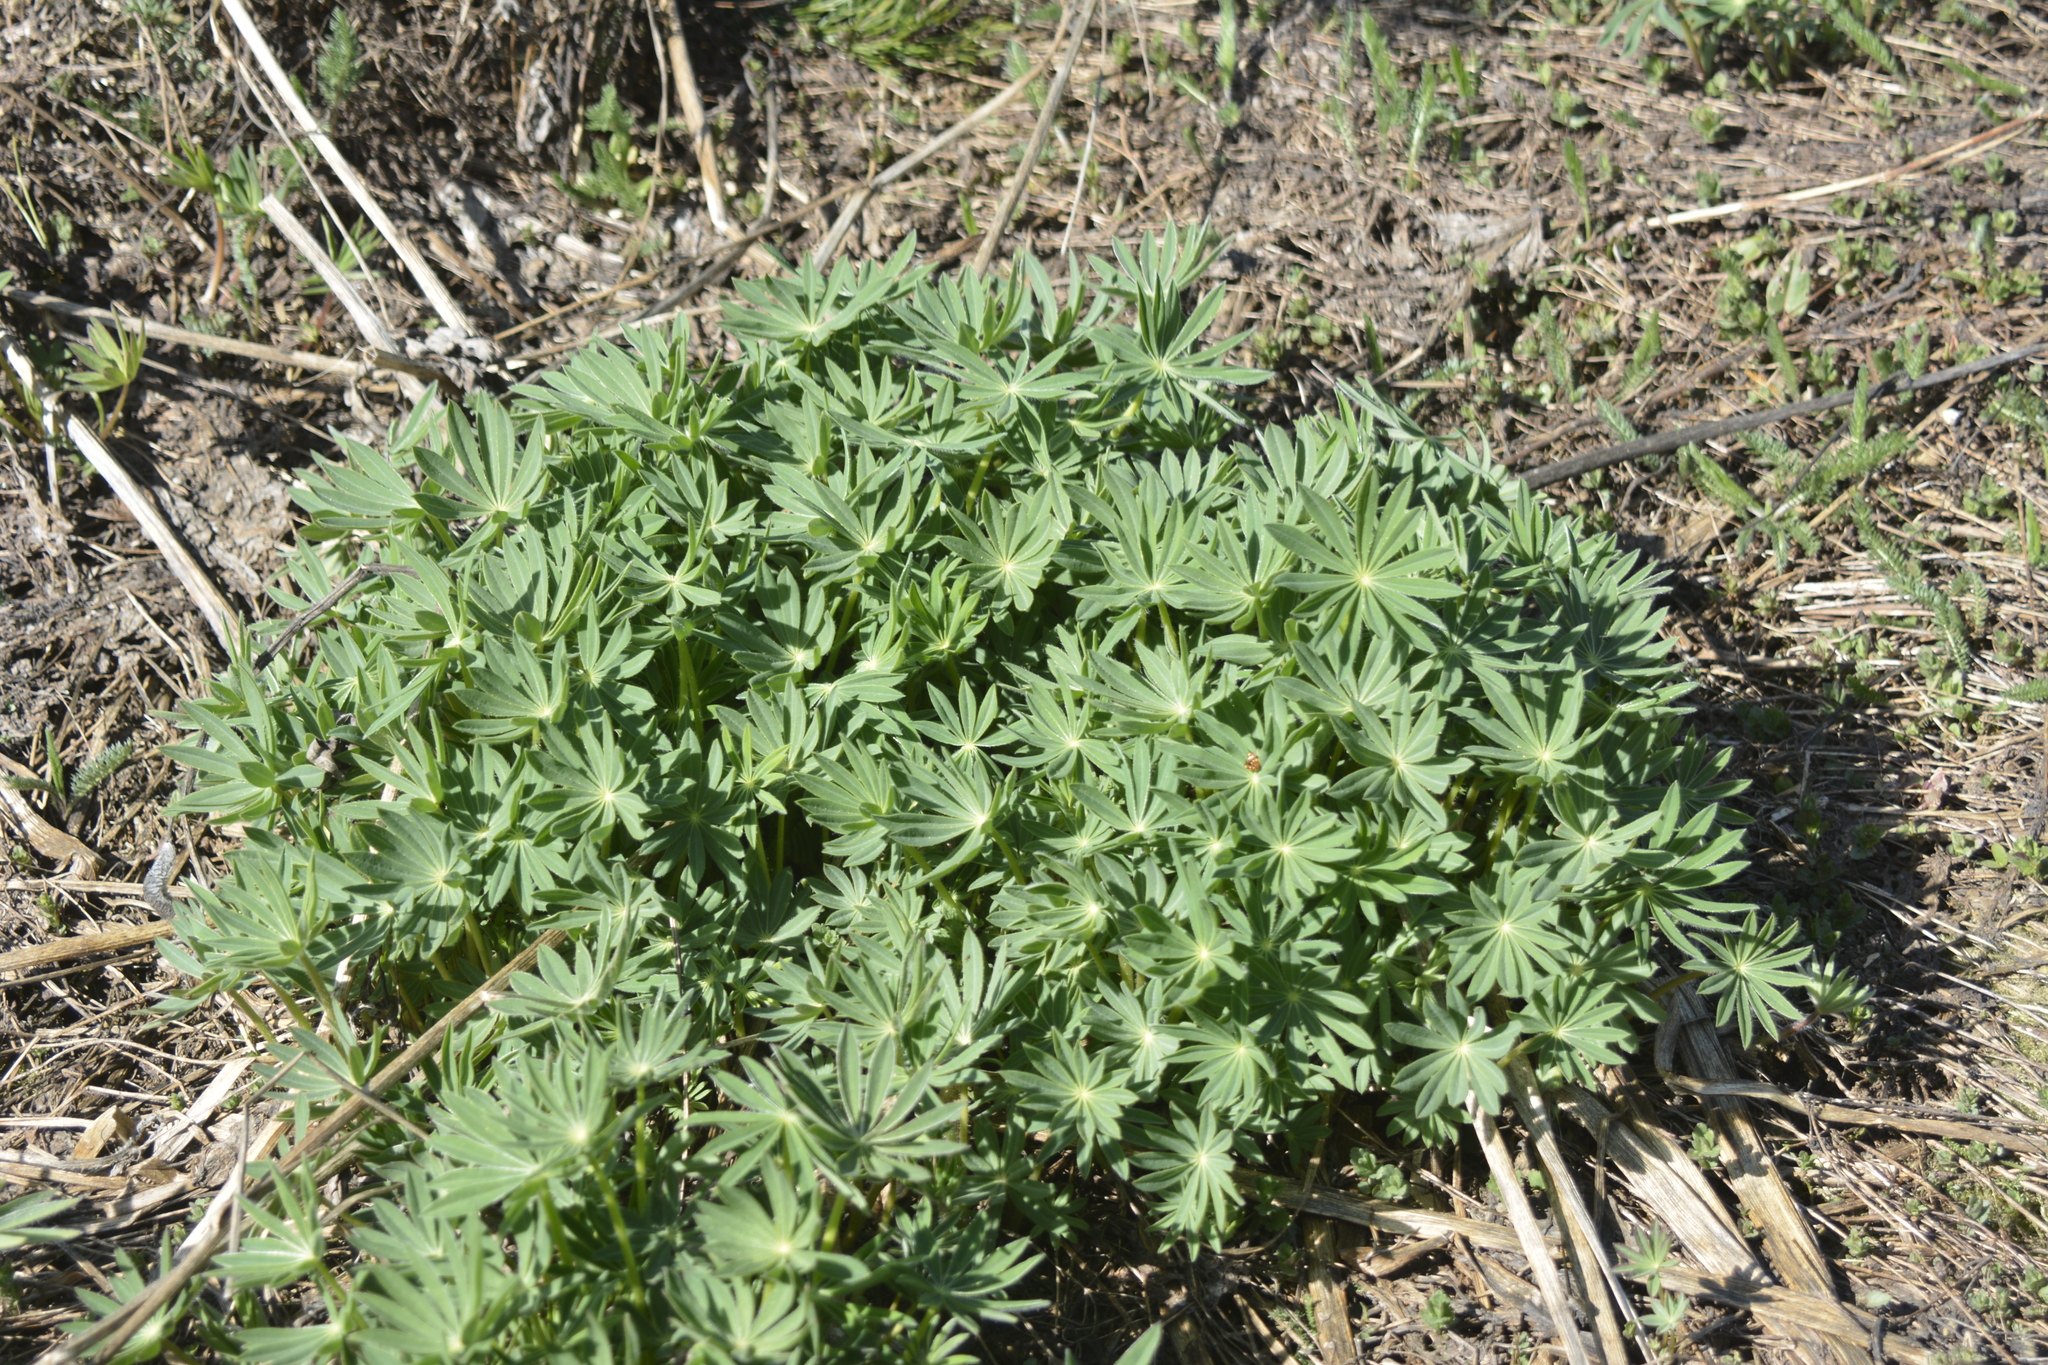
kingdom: Plantae
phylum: Tracheophyta
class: Magnoliopsida
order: Fabales
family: Fabaceae
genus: Lupinus
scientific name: Lupinus polyphyllus
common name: Garden lupin
